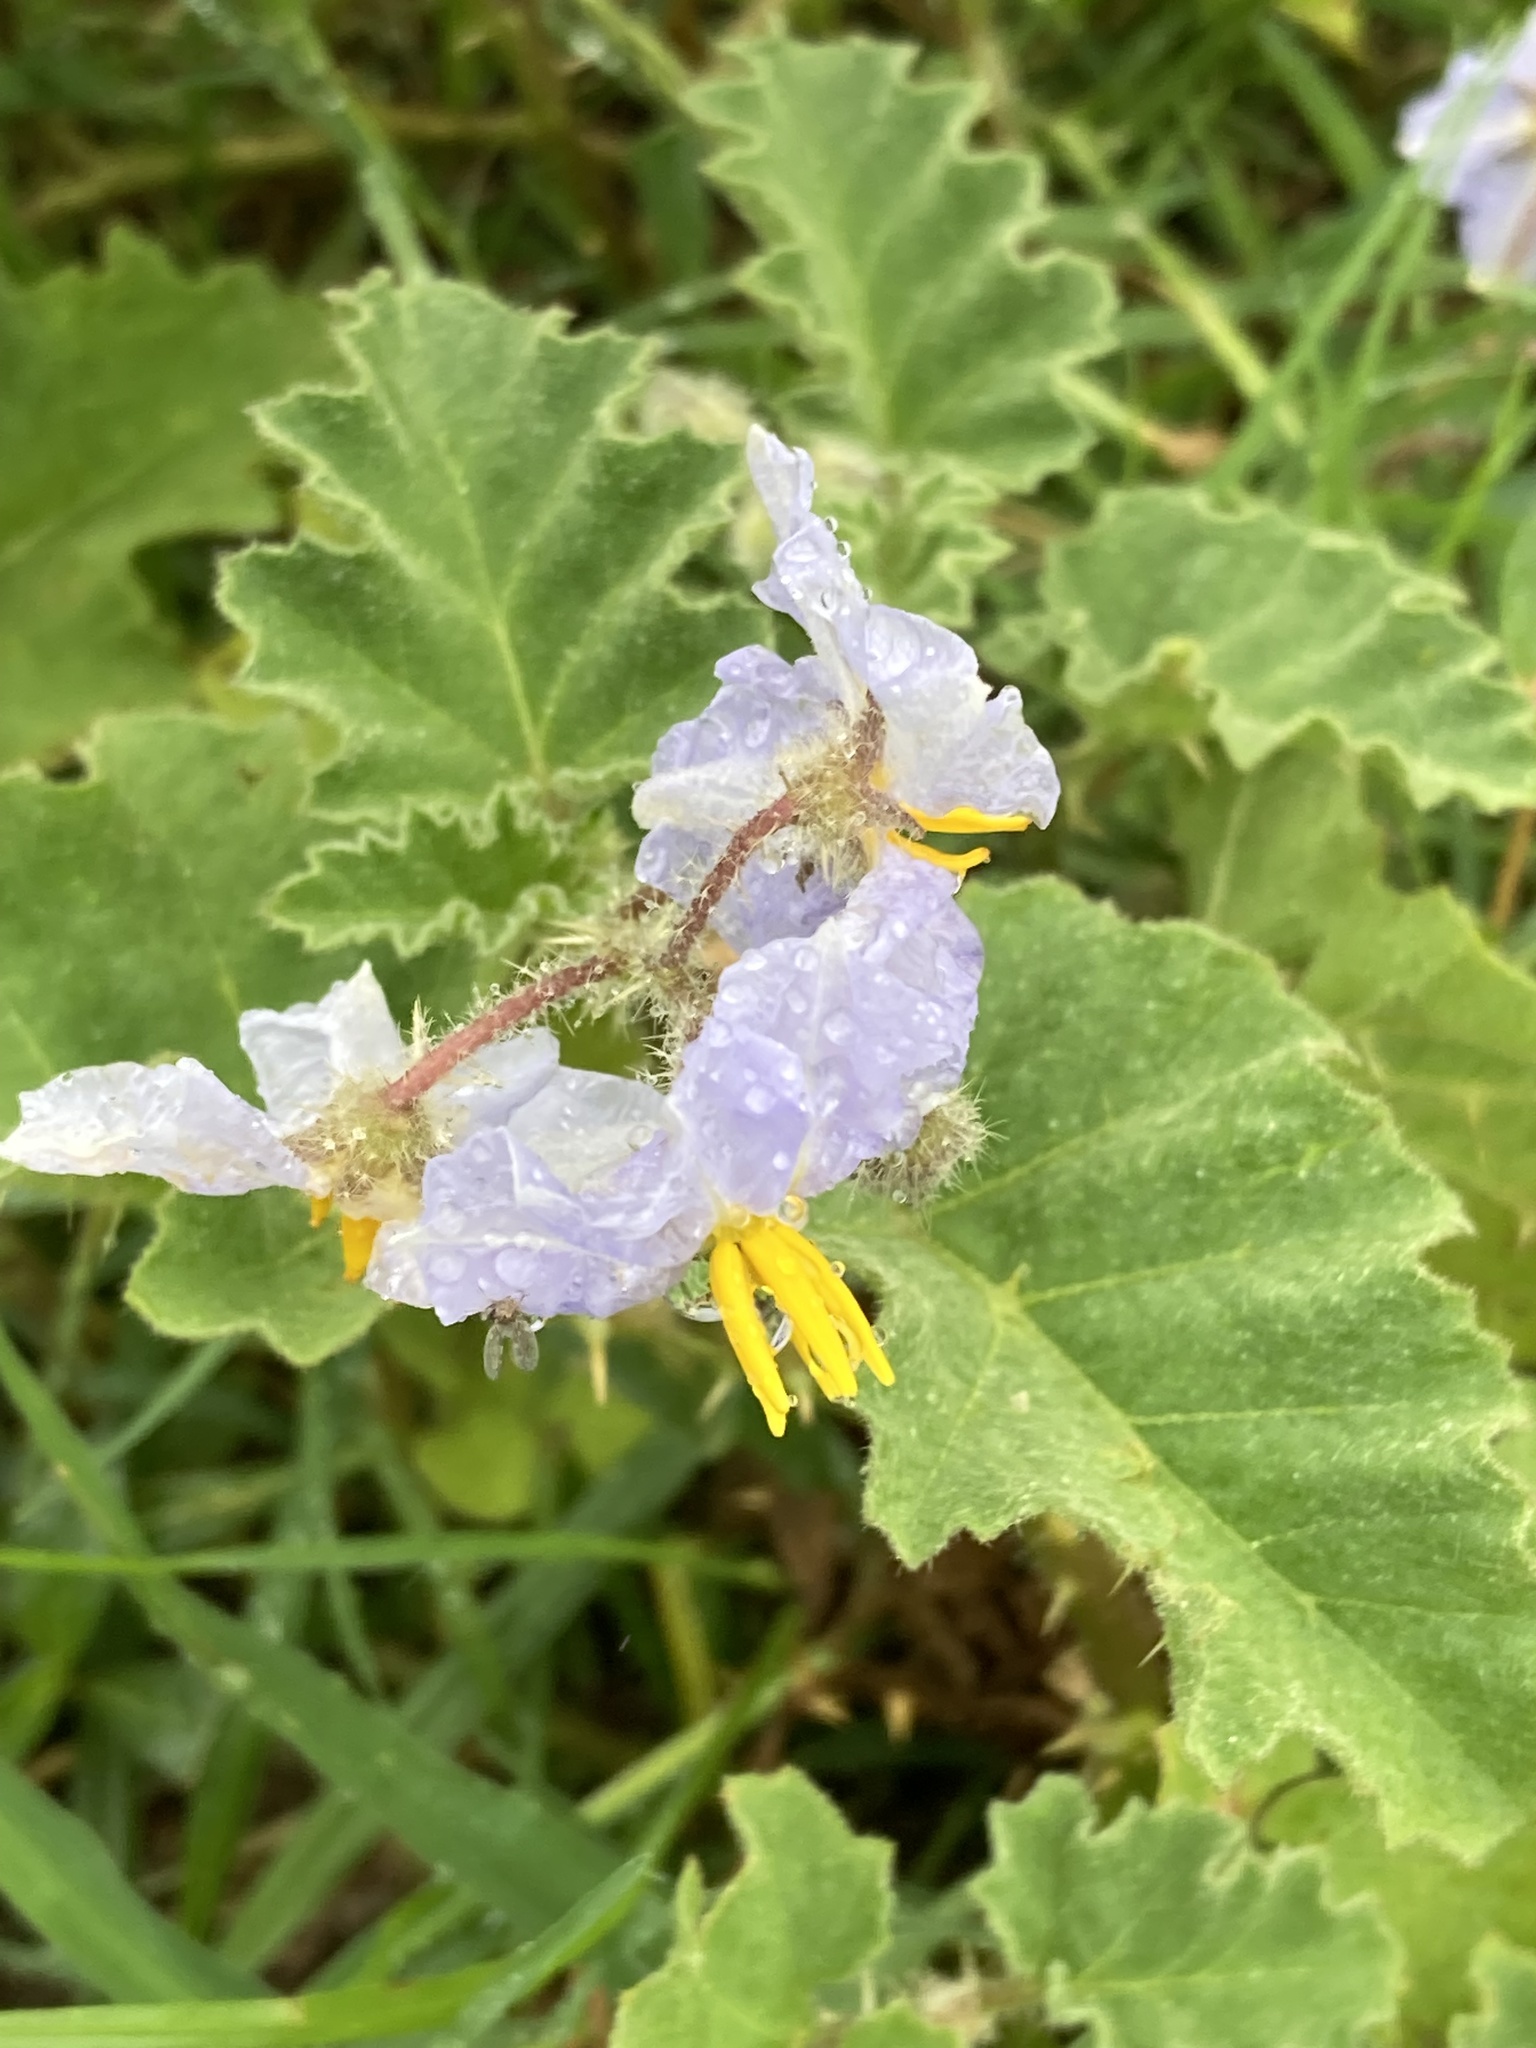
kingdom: Plantae
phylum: Tracheophyta
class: Magnoliopsida
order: Solanales
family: Solanaceae
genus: Solanum
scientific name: Solanum comptum
